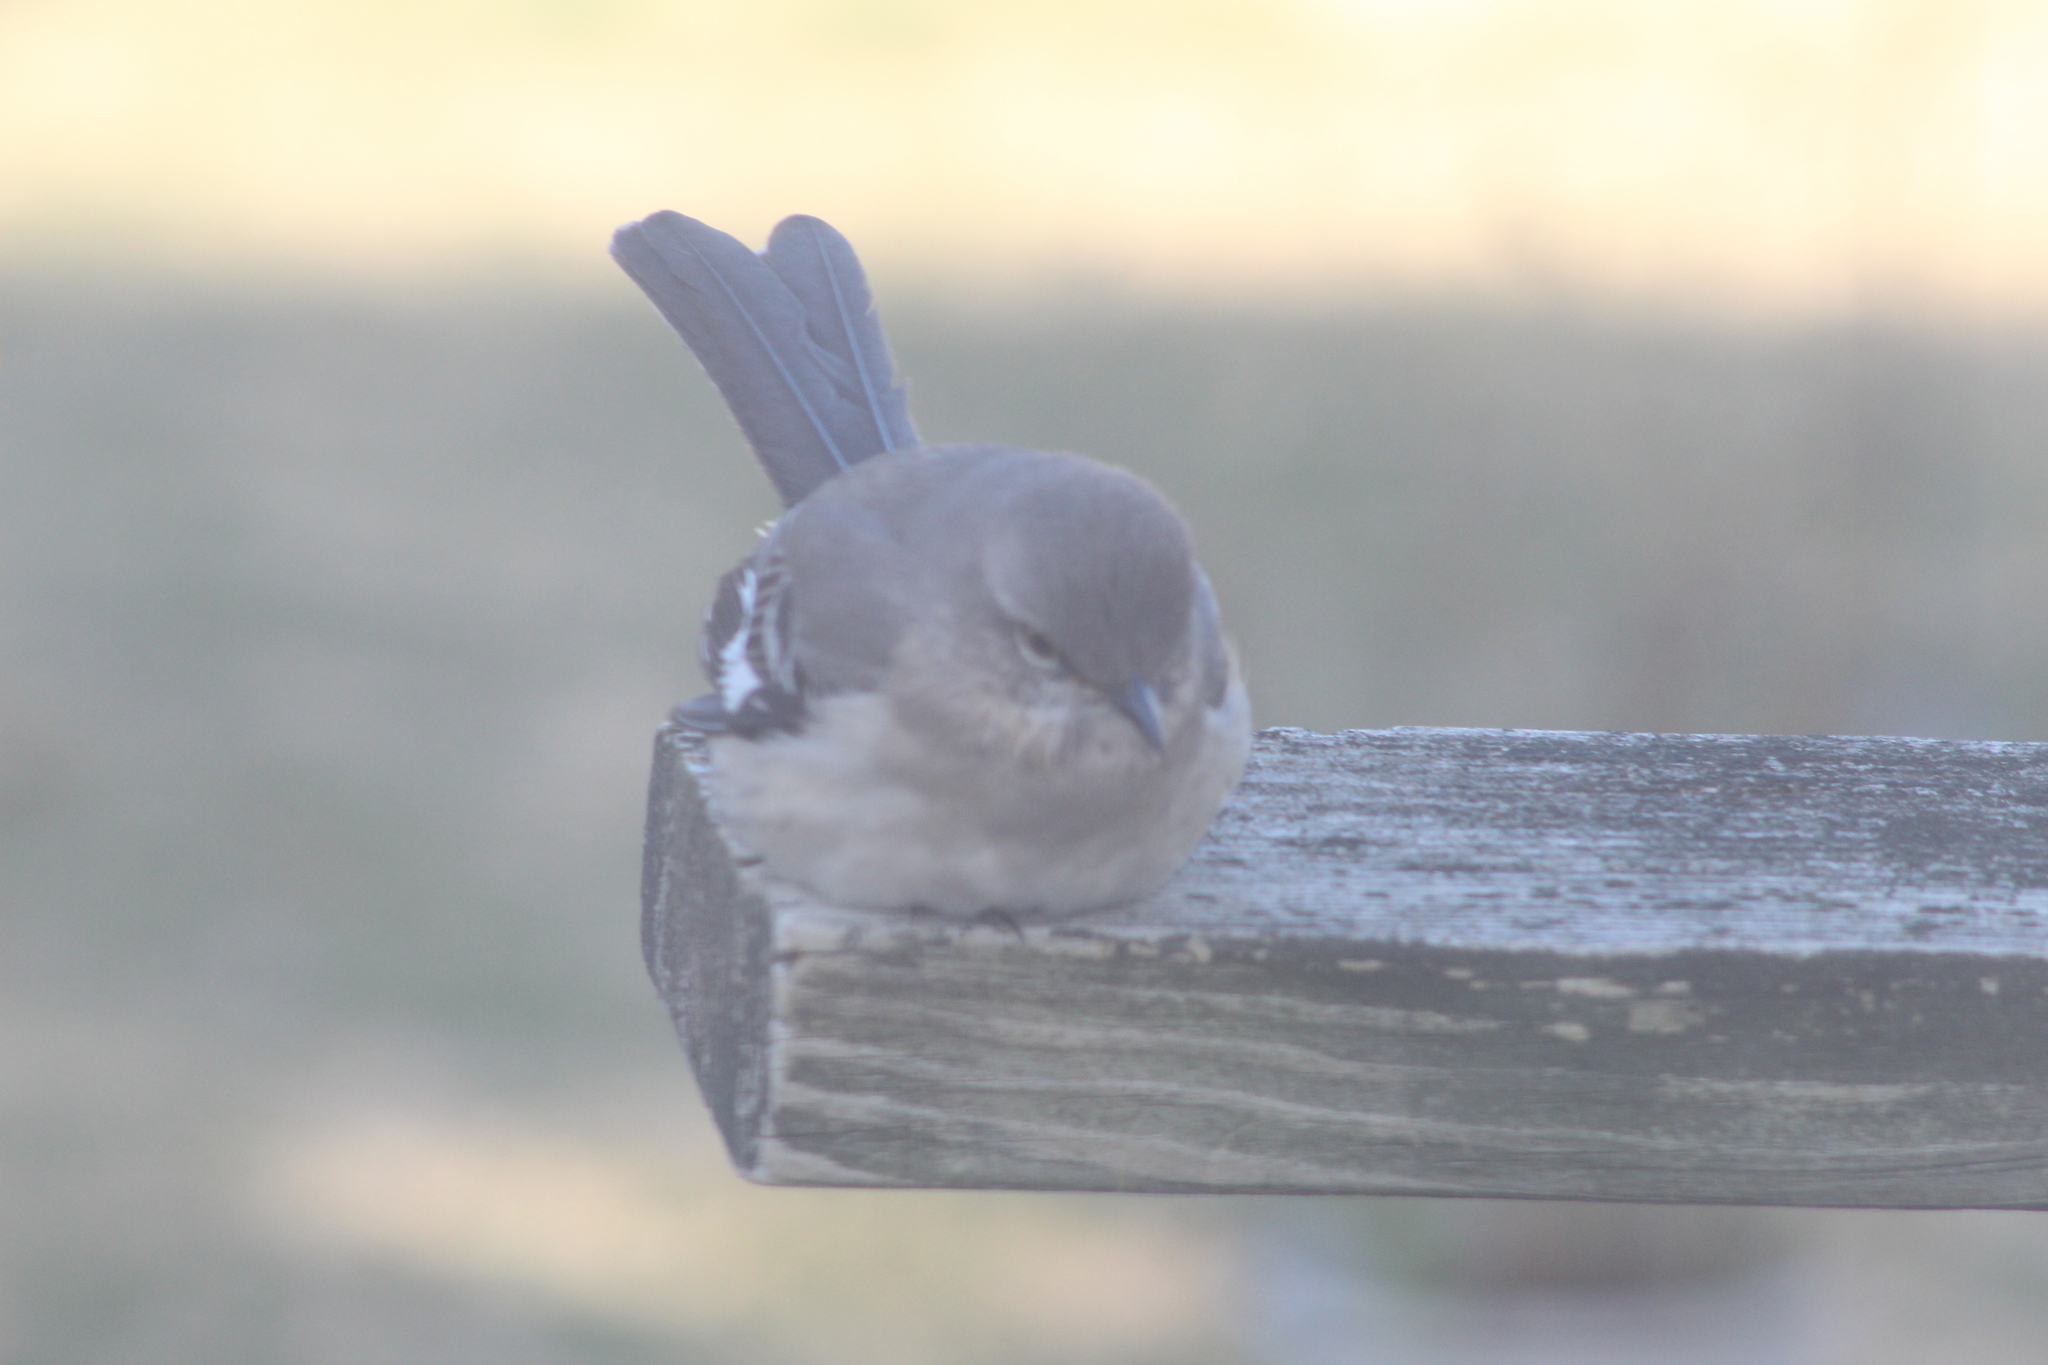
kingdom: Animalia
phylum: Chordata
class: Aves
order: Passeriformes
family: Mimidae
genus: Mimus
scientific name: Mimus polyglottos
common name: Northern mockingbird
